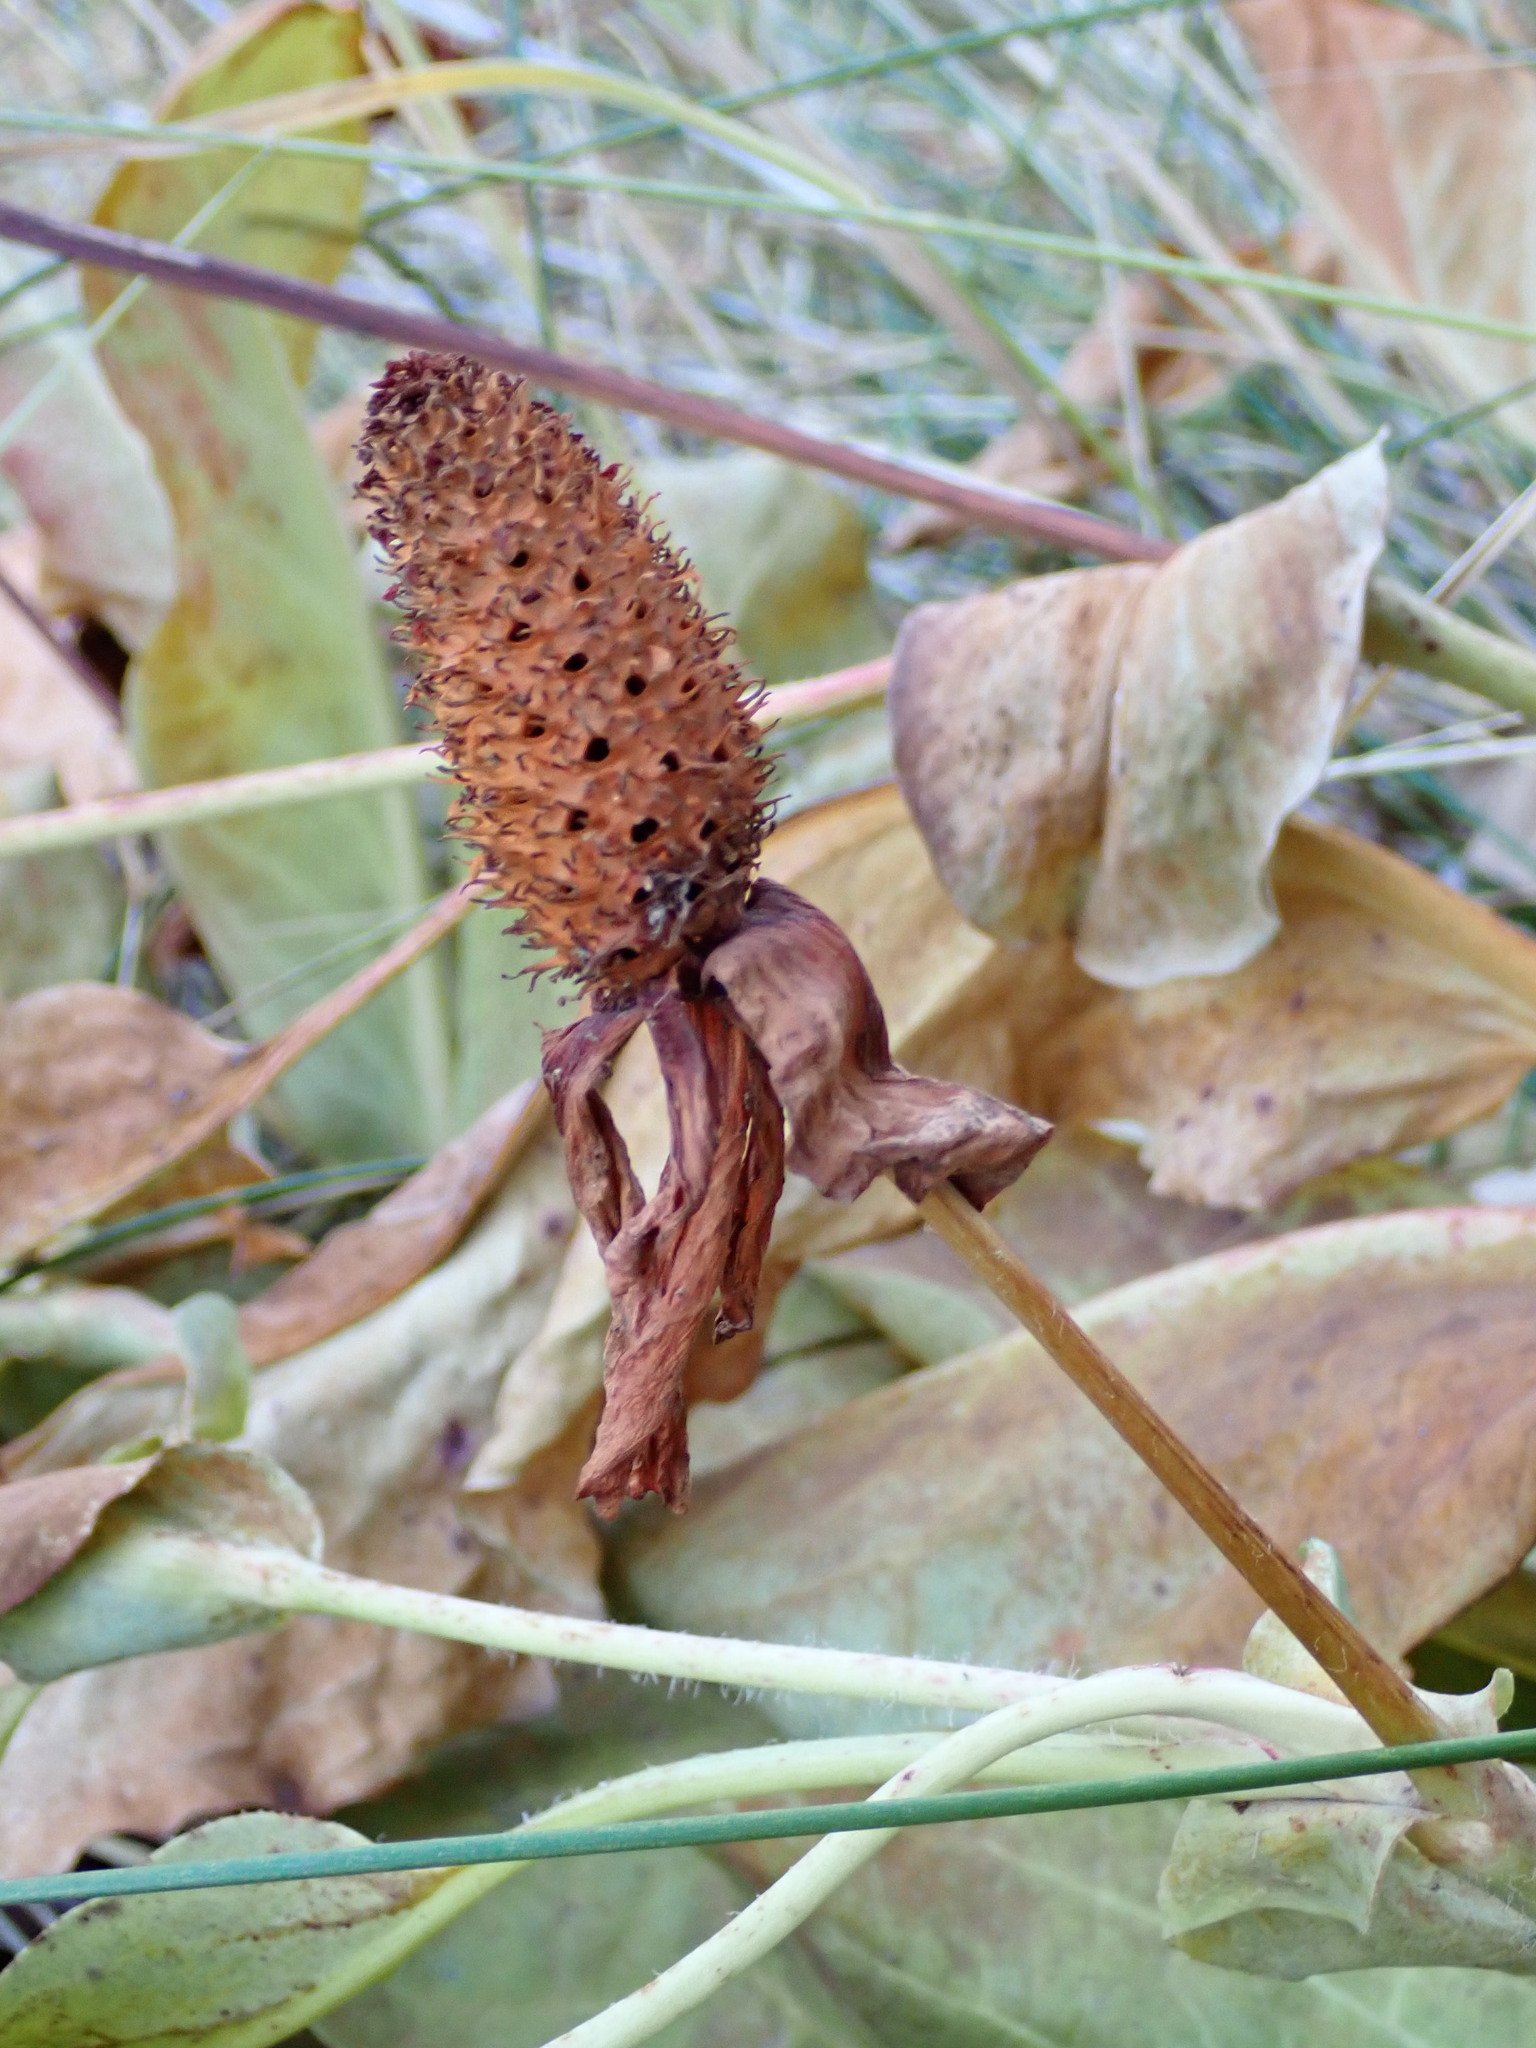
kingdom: Plantae
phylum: Tracheophyta
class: Magnoliopsida
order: Piperales
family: Saururaceae
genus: Anemopsis
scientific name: Anemopsis californica
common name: Apache-beads
